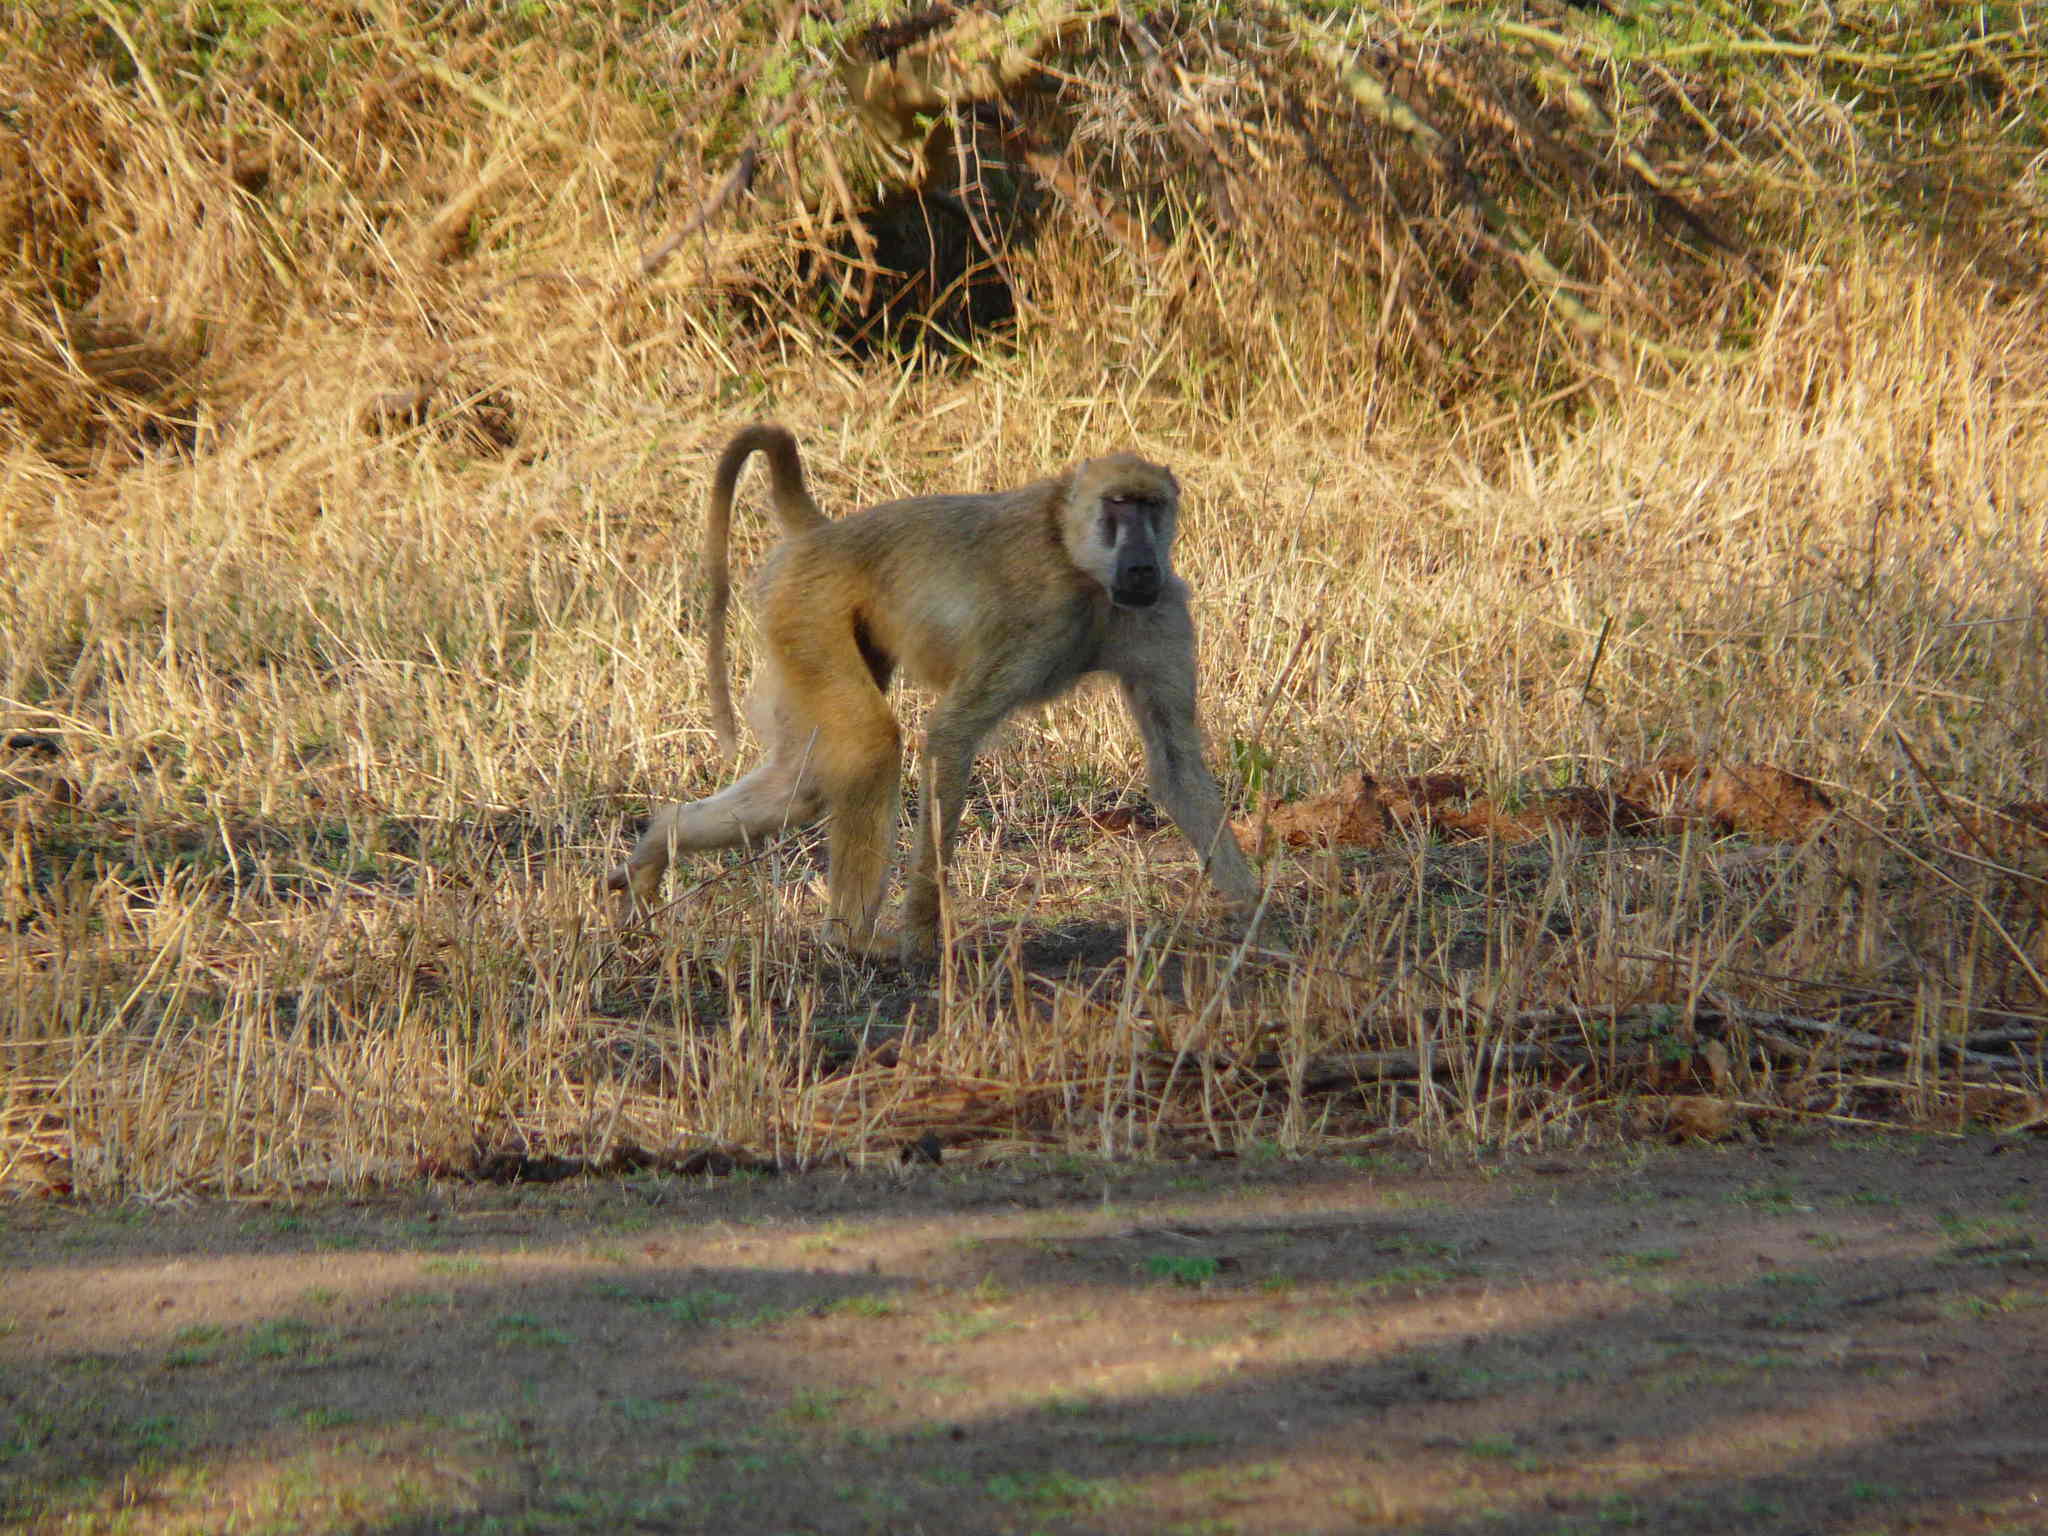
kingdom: Animalia
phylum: Chordata
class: Mammalia
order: Primates
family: Cercopithecidae
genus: Papio
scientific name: Papio cynocephalus
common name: Yellow baboon
